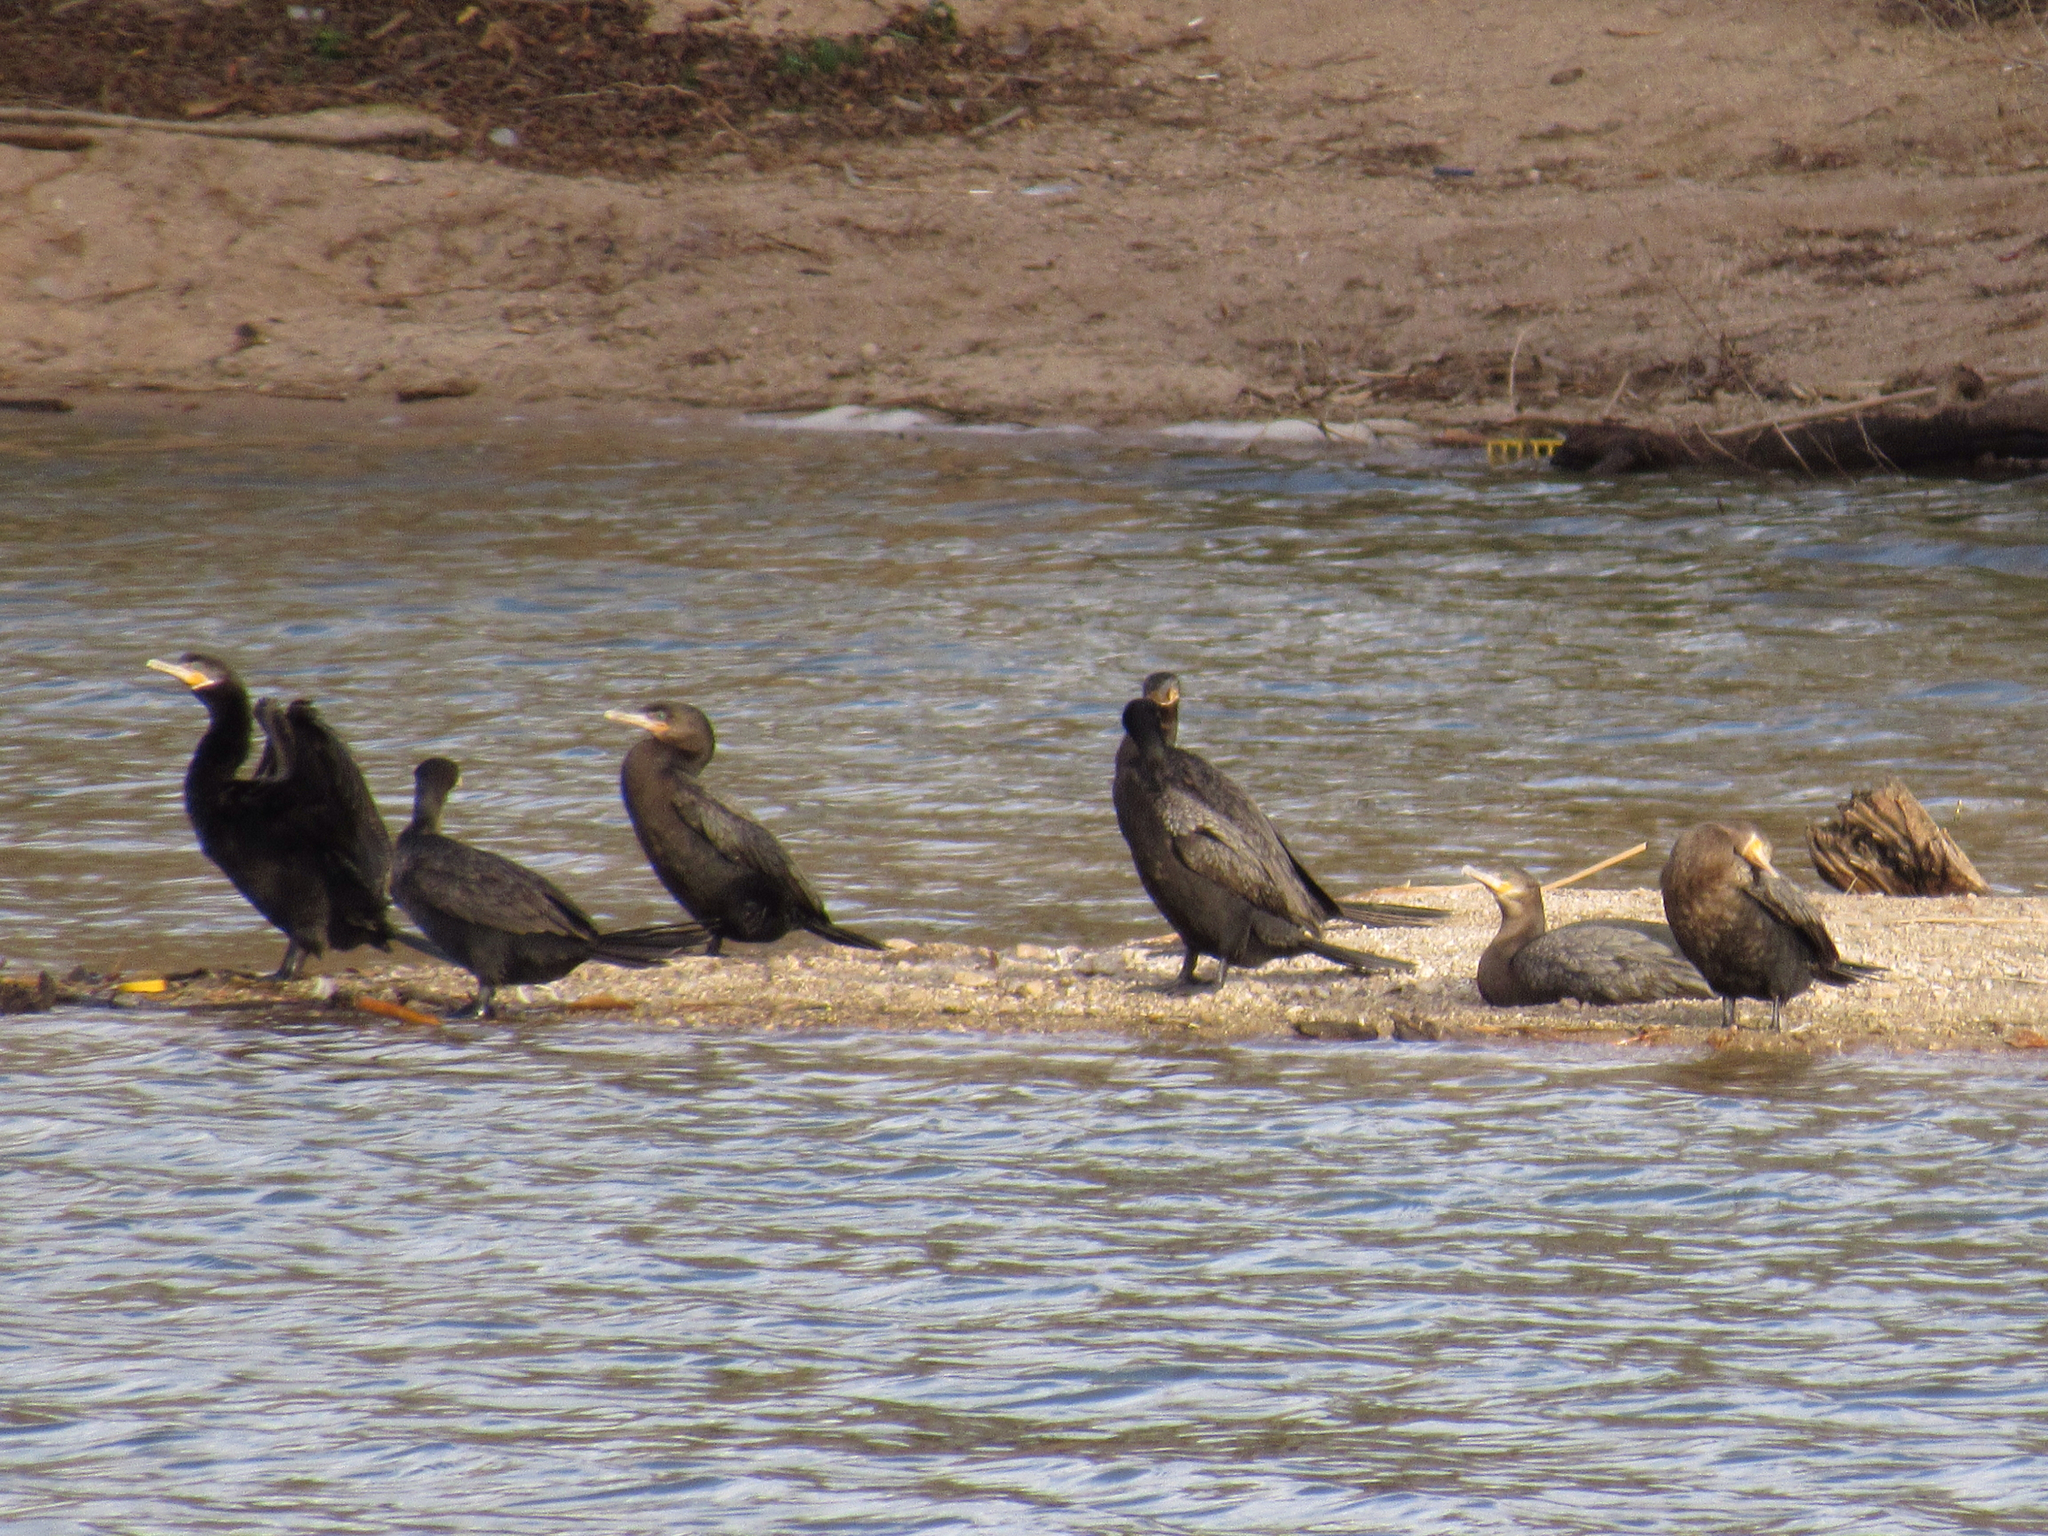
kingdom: Animalia
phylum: Chordata
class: Aves
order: Suliformes
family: Phalacrocoracidae
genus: Phalacrocorax
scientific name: Phalacrocorax brasilianus
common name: Neotropic cormorant
